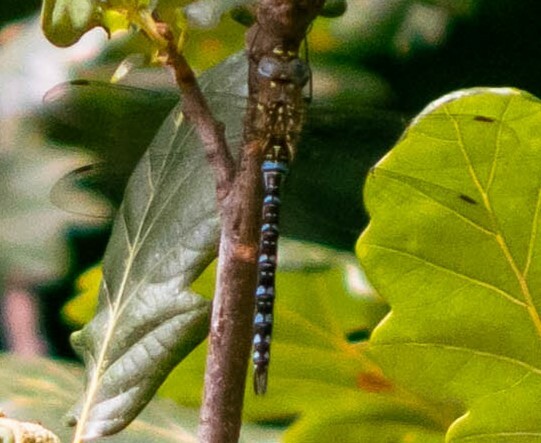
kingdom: Animalia
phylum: Arthropoda
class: Insecta
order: Odonata
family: Aeshnidae
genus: Aeshna
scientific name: Aeshna mixta
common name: Migrant hawker
